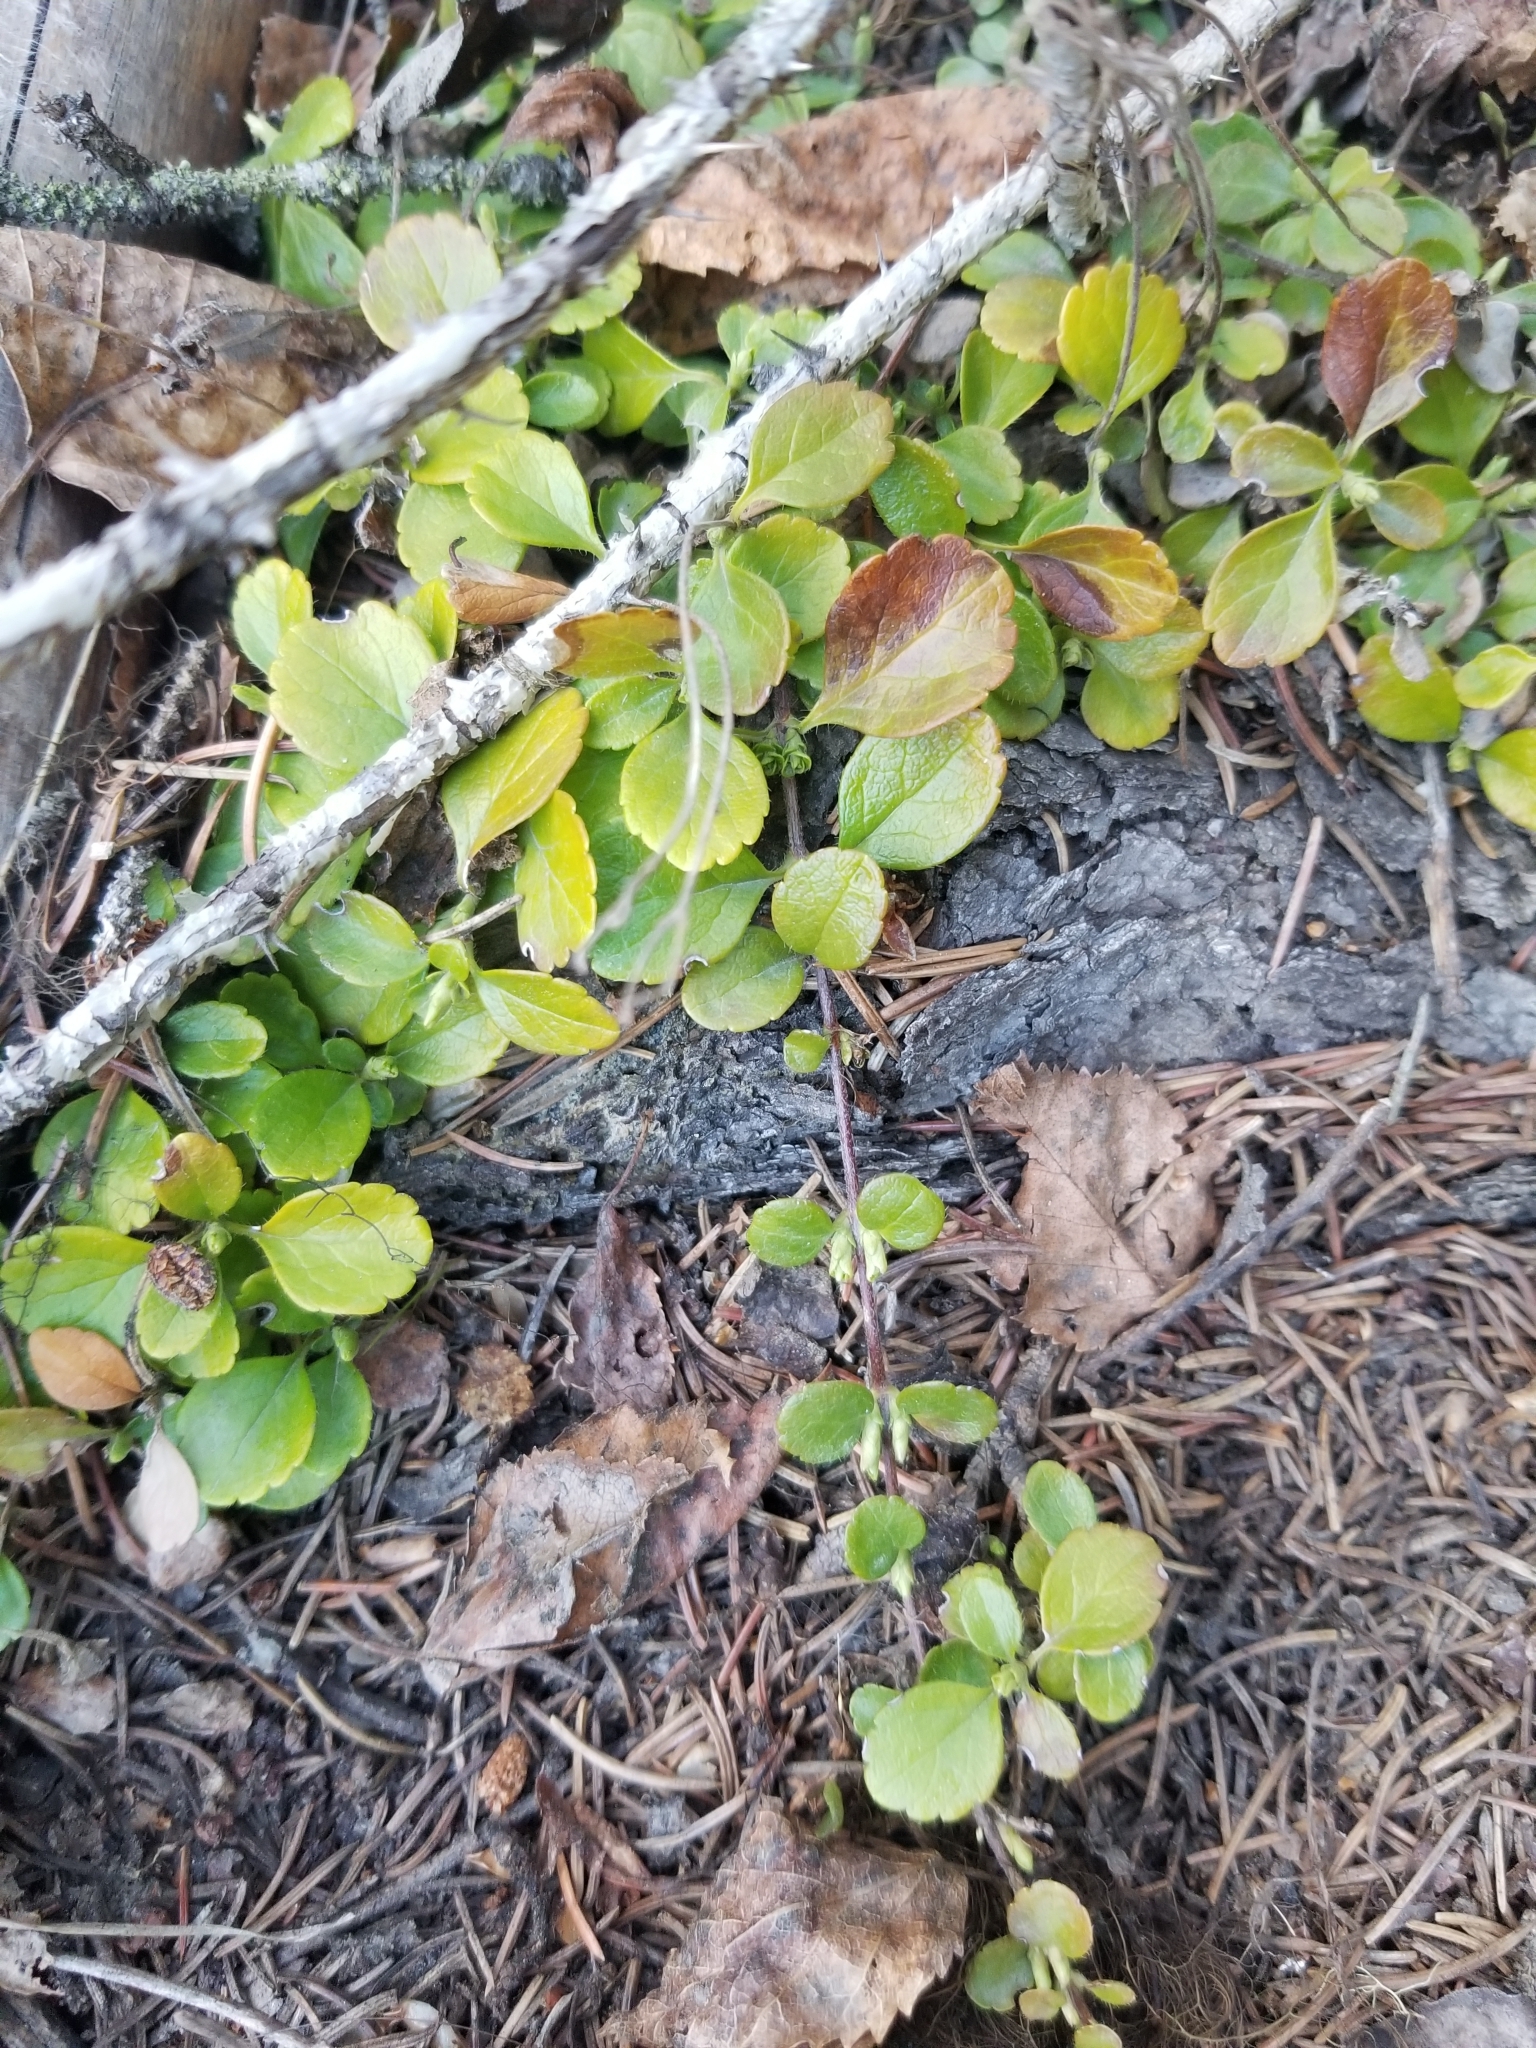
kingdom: Plantae
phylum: Tracheophyta
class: Magnoliopsida
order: Dipsacales
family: Caprifoliaceae
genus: Linnaea
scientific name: Linnaea borealis
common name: Twinflower
